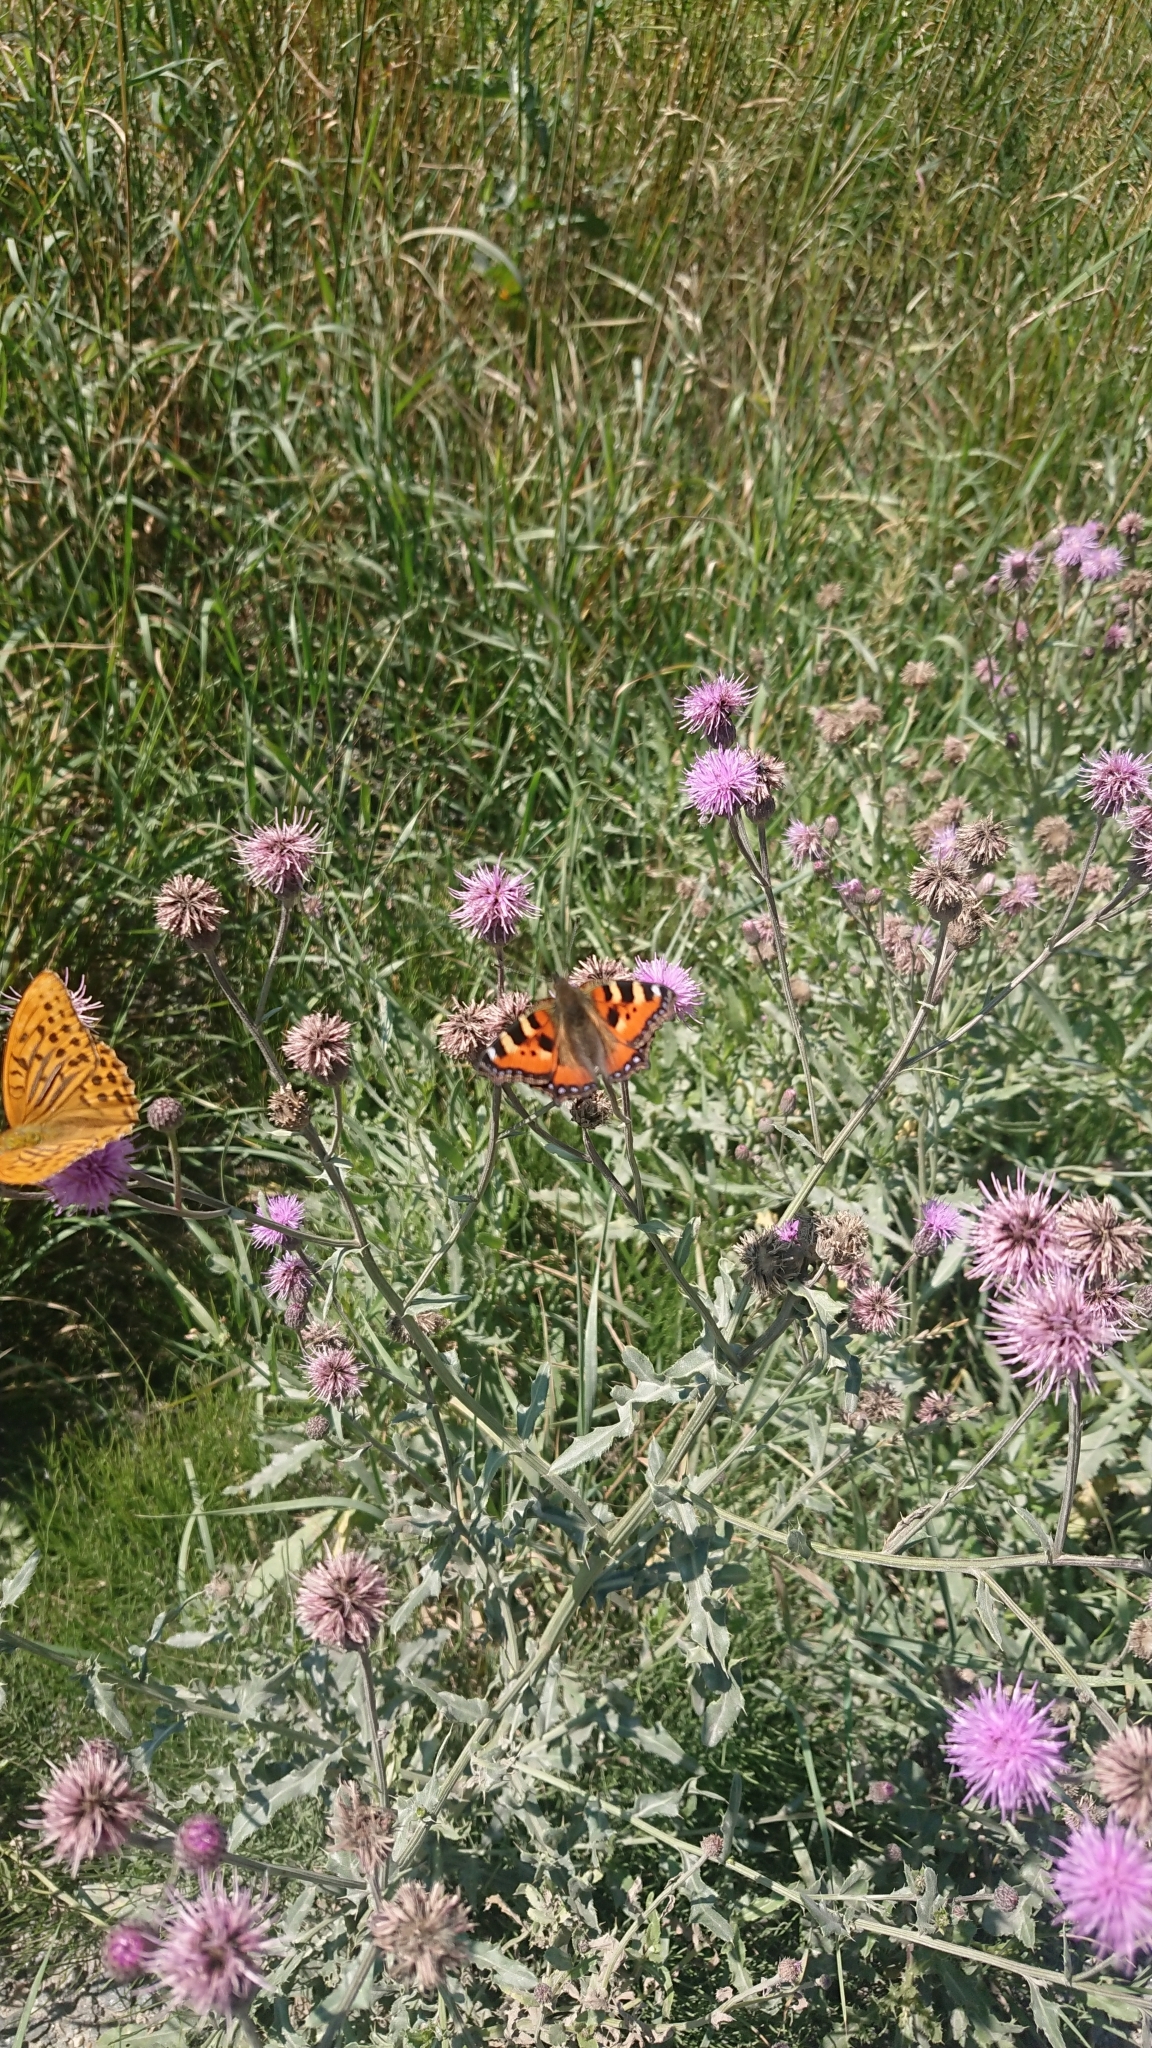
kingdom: Animalia
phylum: Arthropoda
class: Insecta
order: Lepidoptera
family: Nymphalidae
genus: Aglais
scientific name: Aglais urticae
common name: Small tortoiseshell
